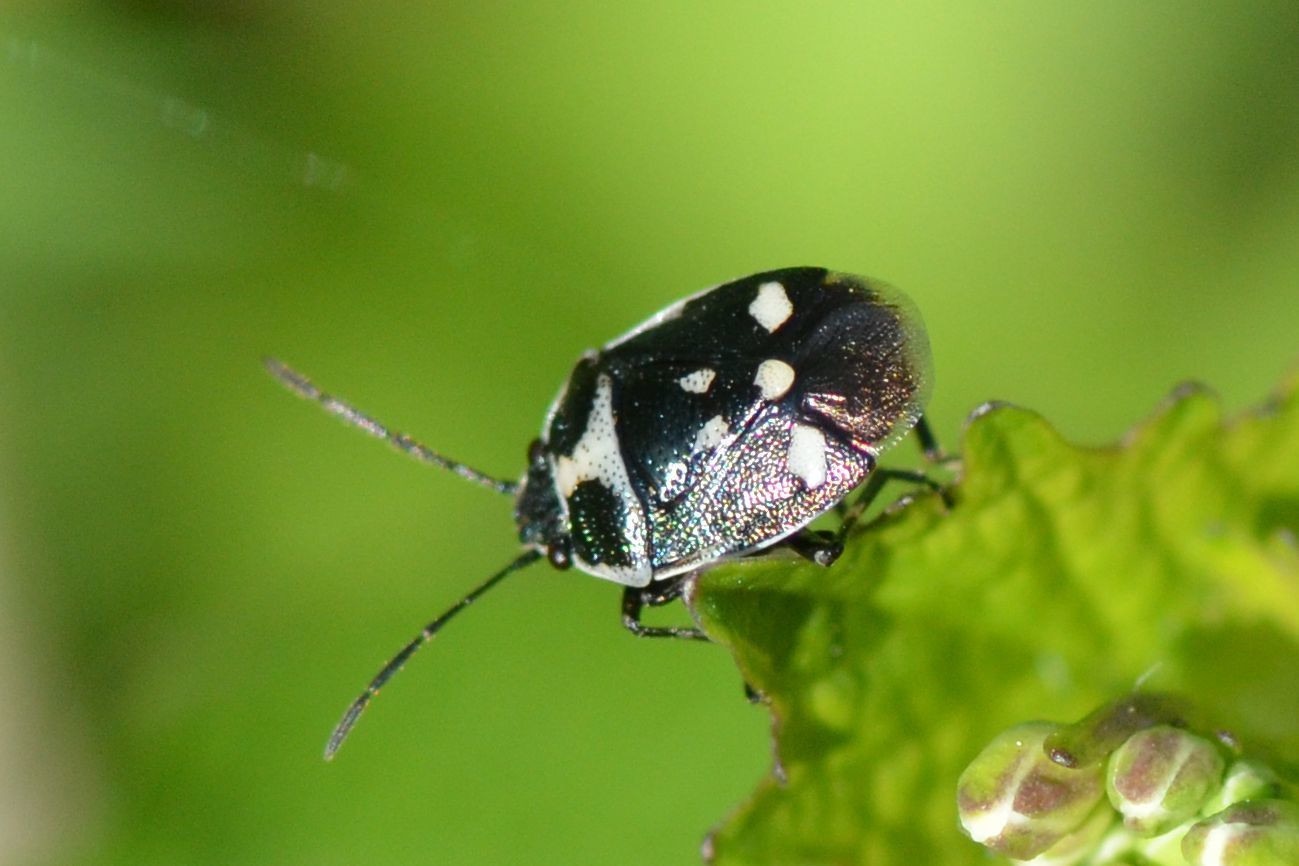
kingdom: Animalia
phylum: Arthropoda
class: Insecta
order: Hemiptera
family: Pentatomidae
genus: Eurydema
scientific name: Eurydema oleracea
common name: Cabbage bug
